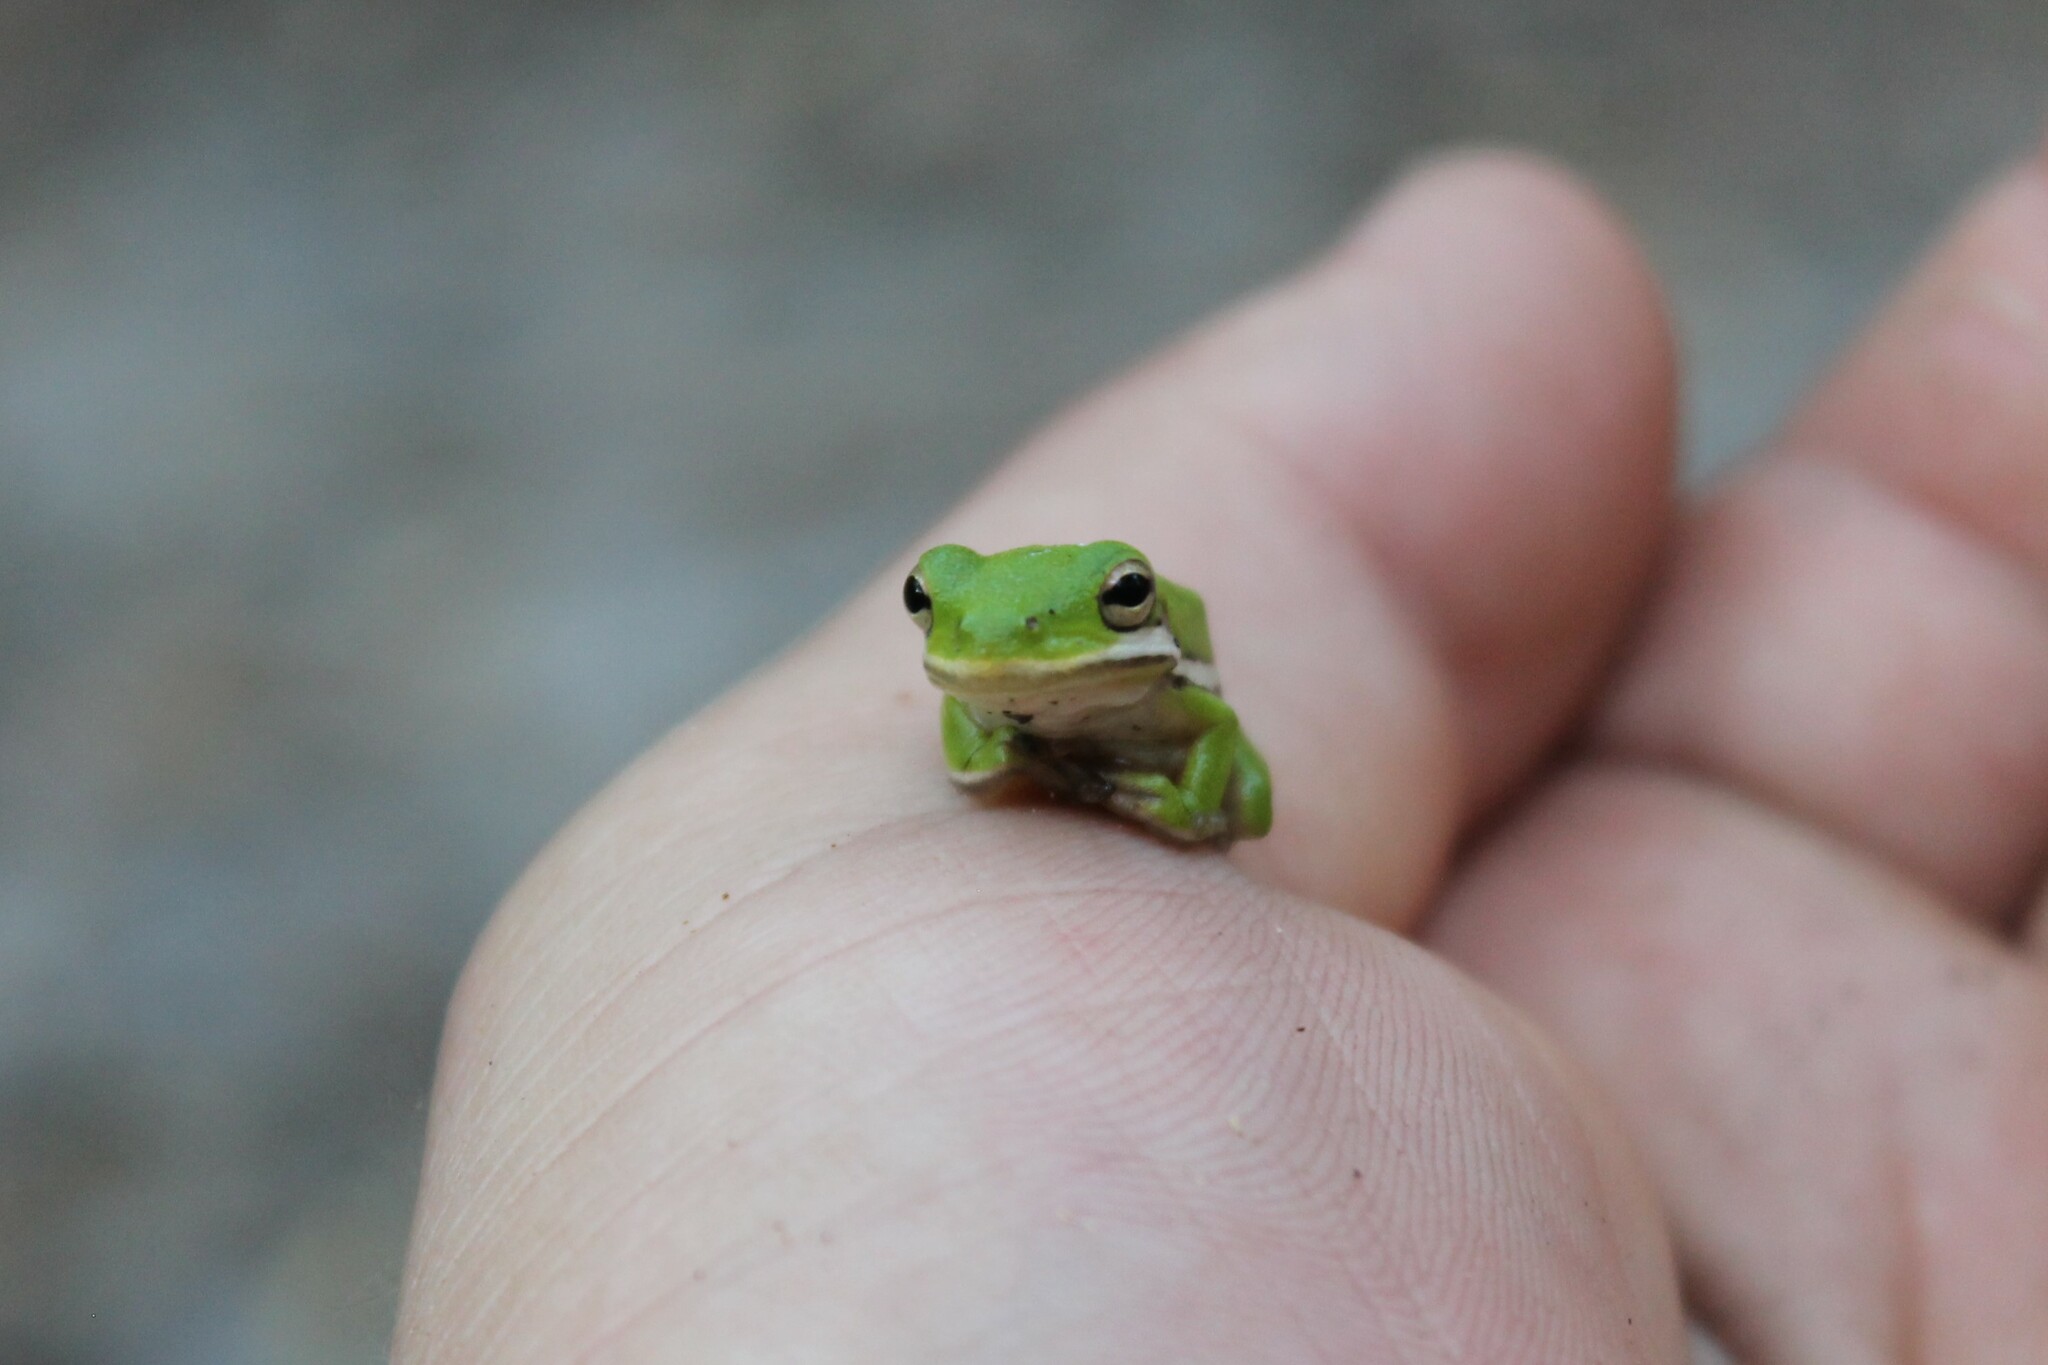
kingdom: Animalia
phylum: Chordata
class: Amphibia
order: Anura
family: Hylidae
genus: Dryophytes
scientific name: Dryophytes cinereus
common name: Green treefrog
